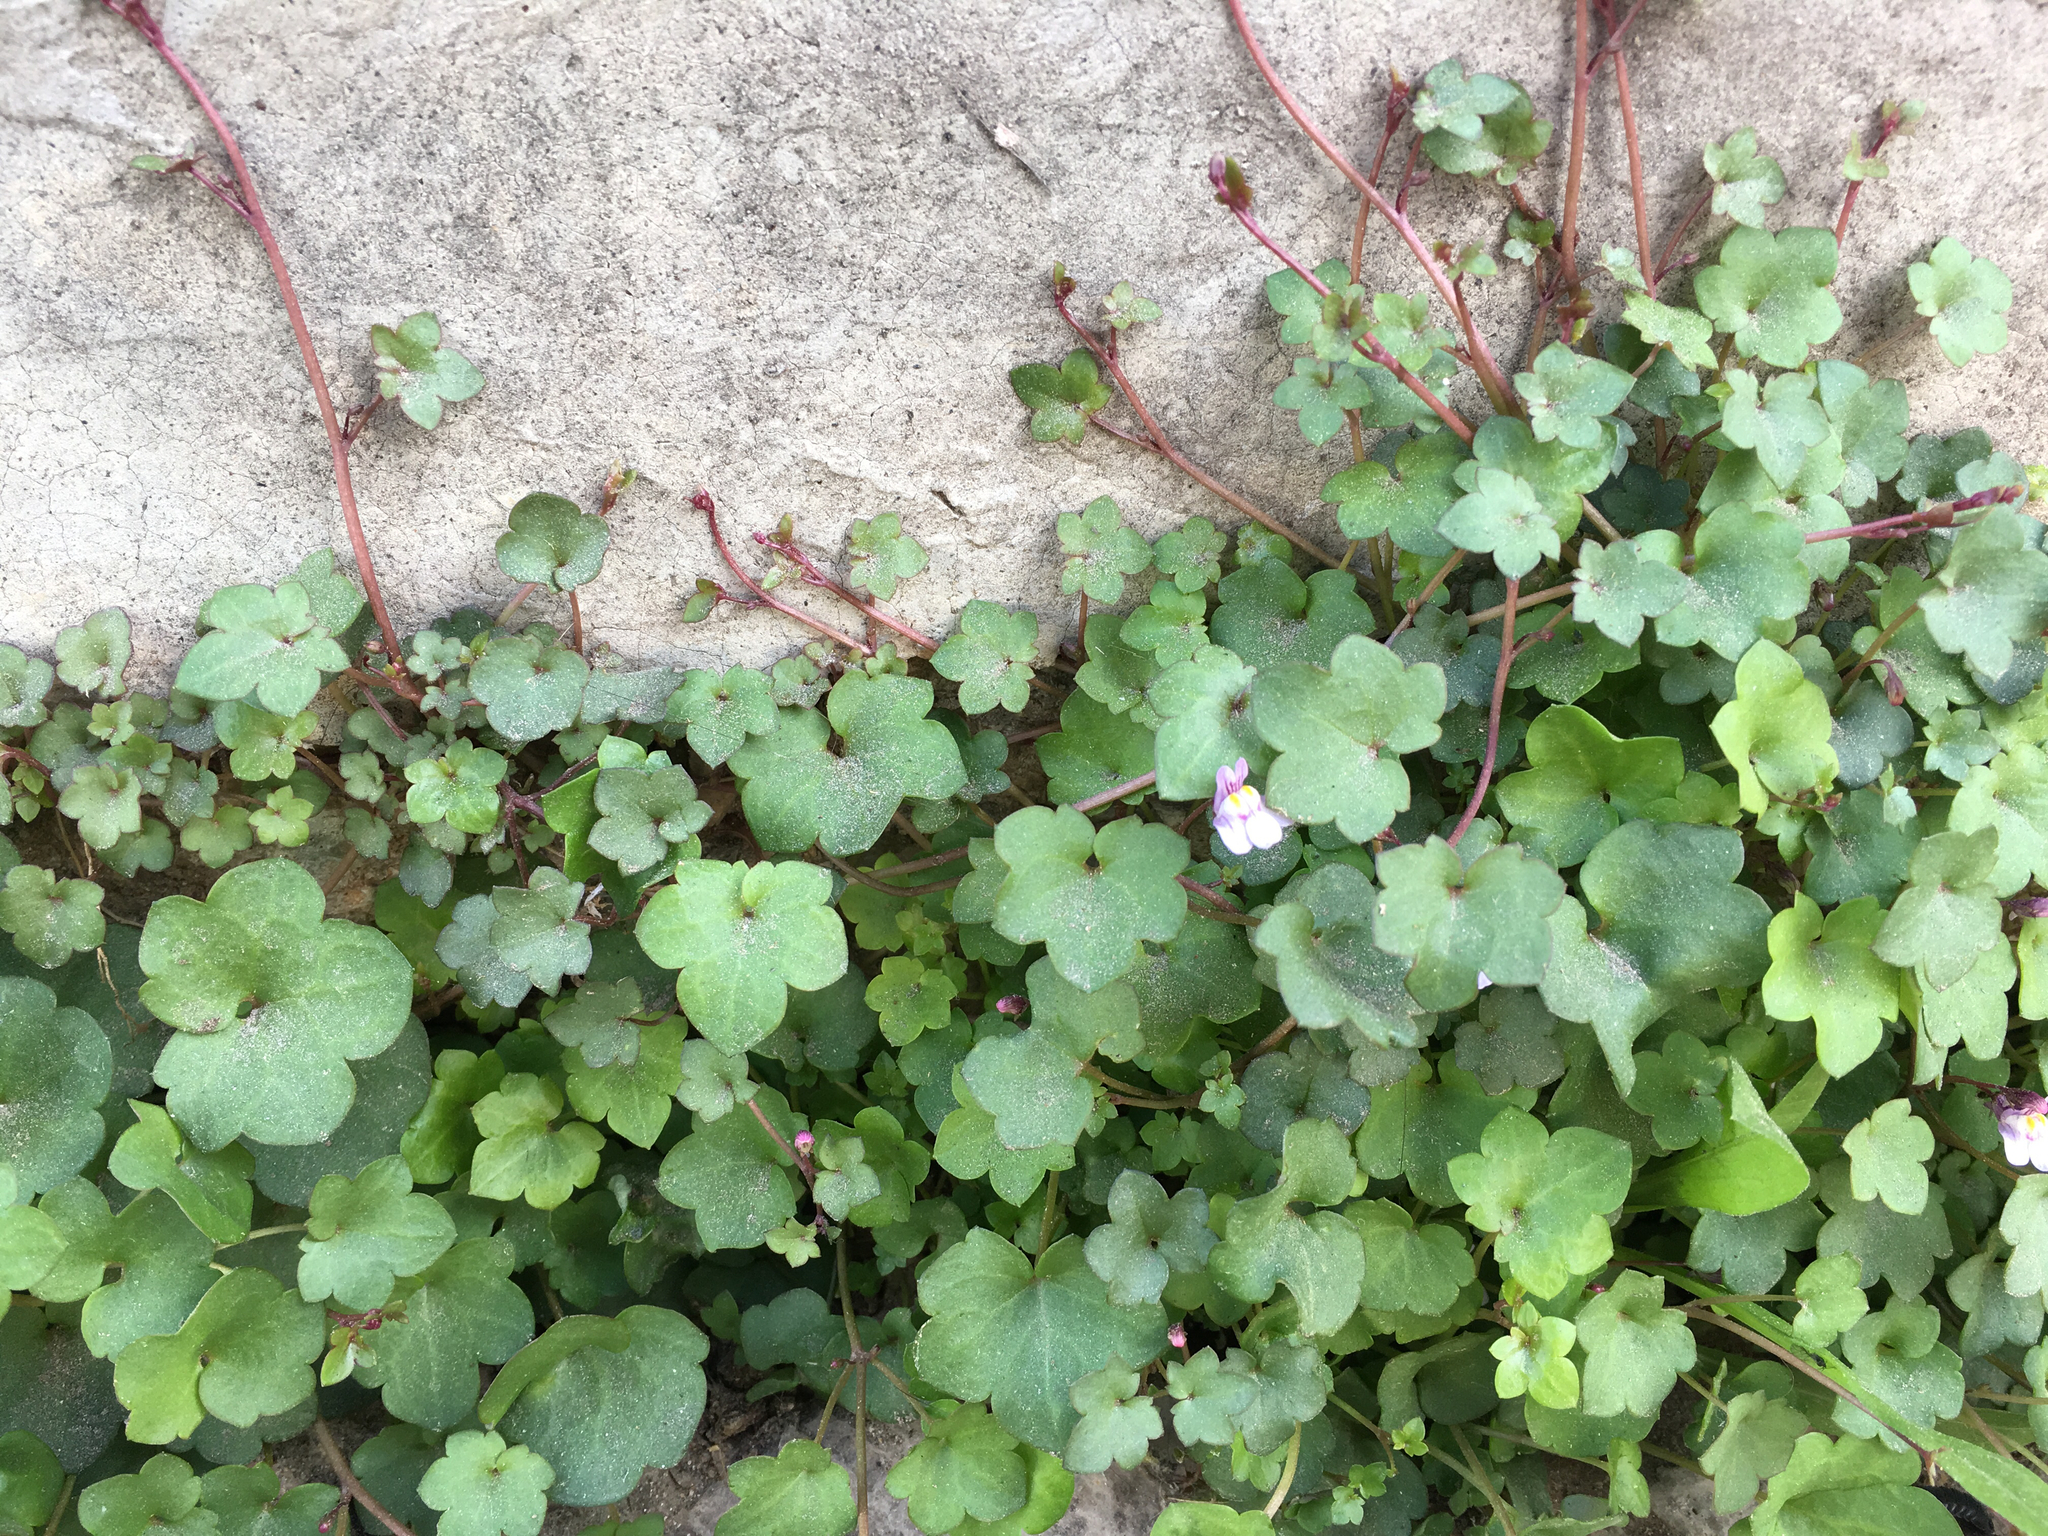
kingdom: Plantae
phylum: Tracheophyta
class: Magnoliopsida
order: Lamiales
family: Plantaginaceae
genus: Cymbalaria
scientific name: Cymbalaria muralis
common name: Ivy-leaved toadflax
